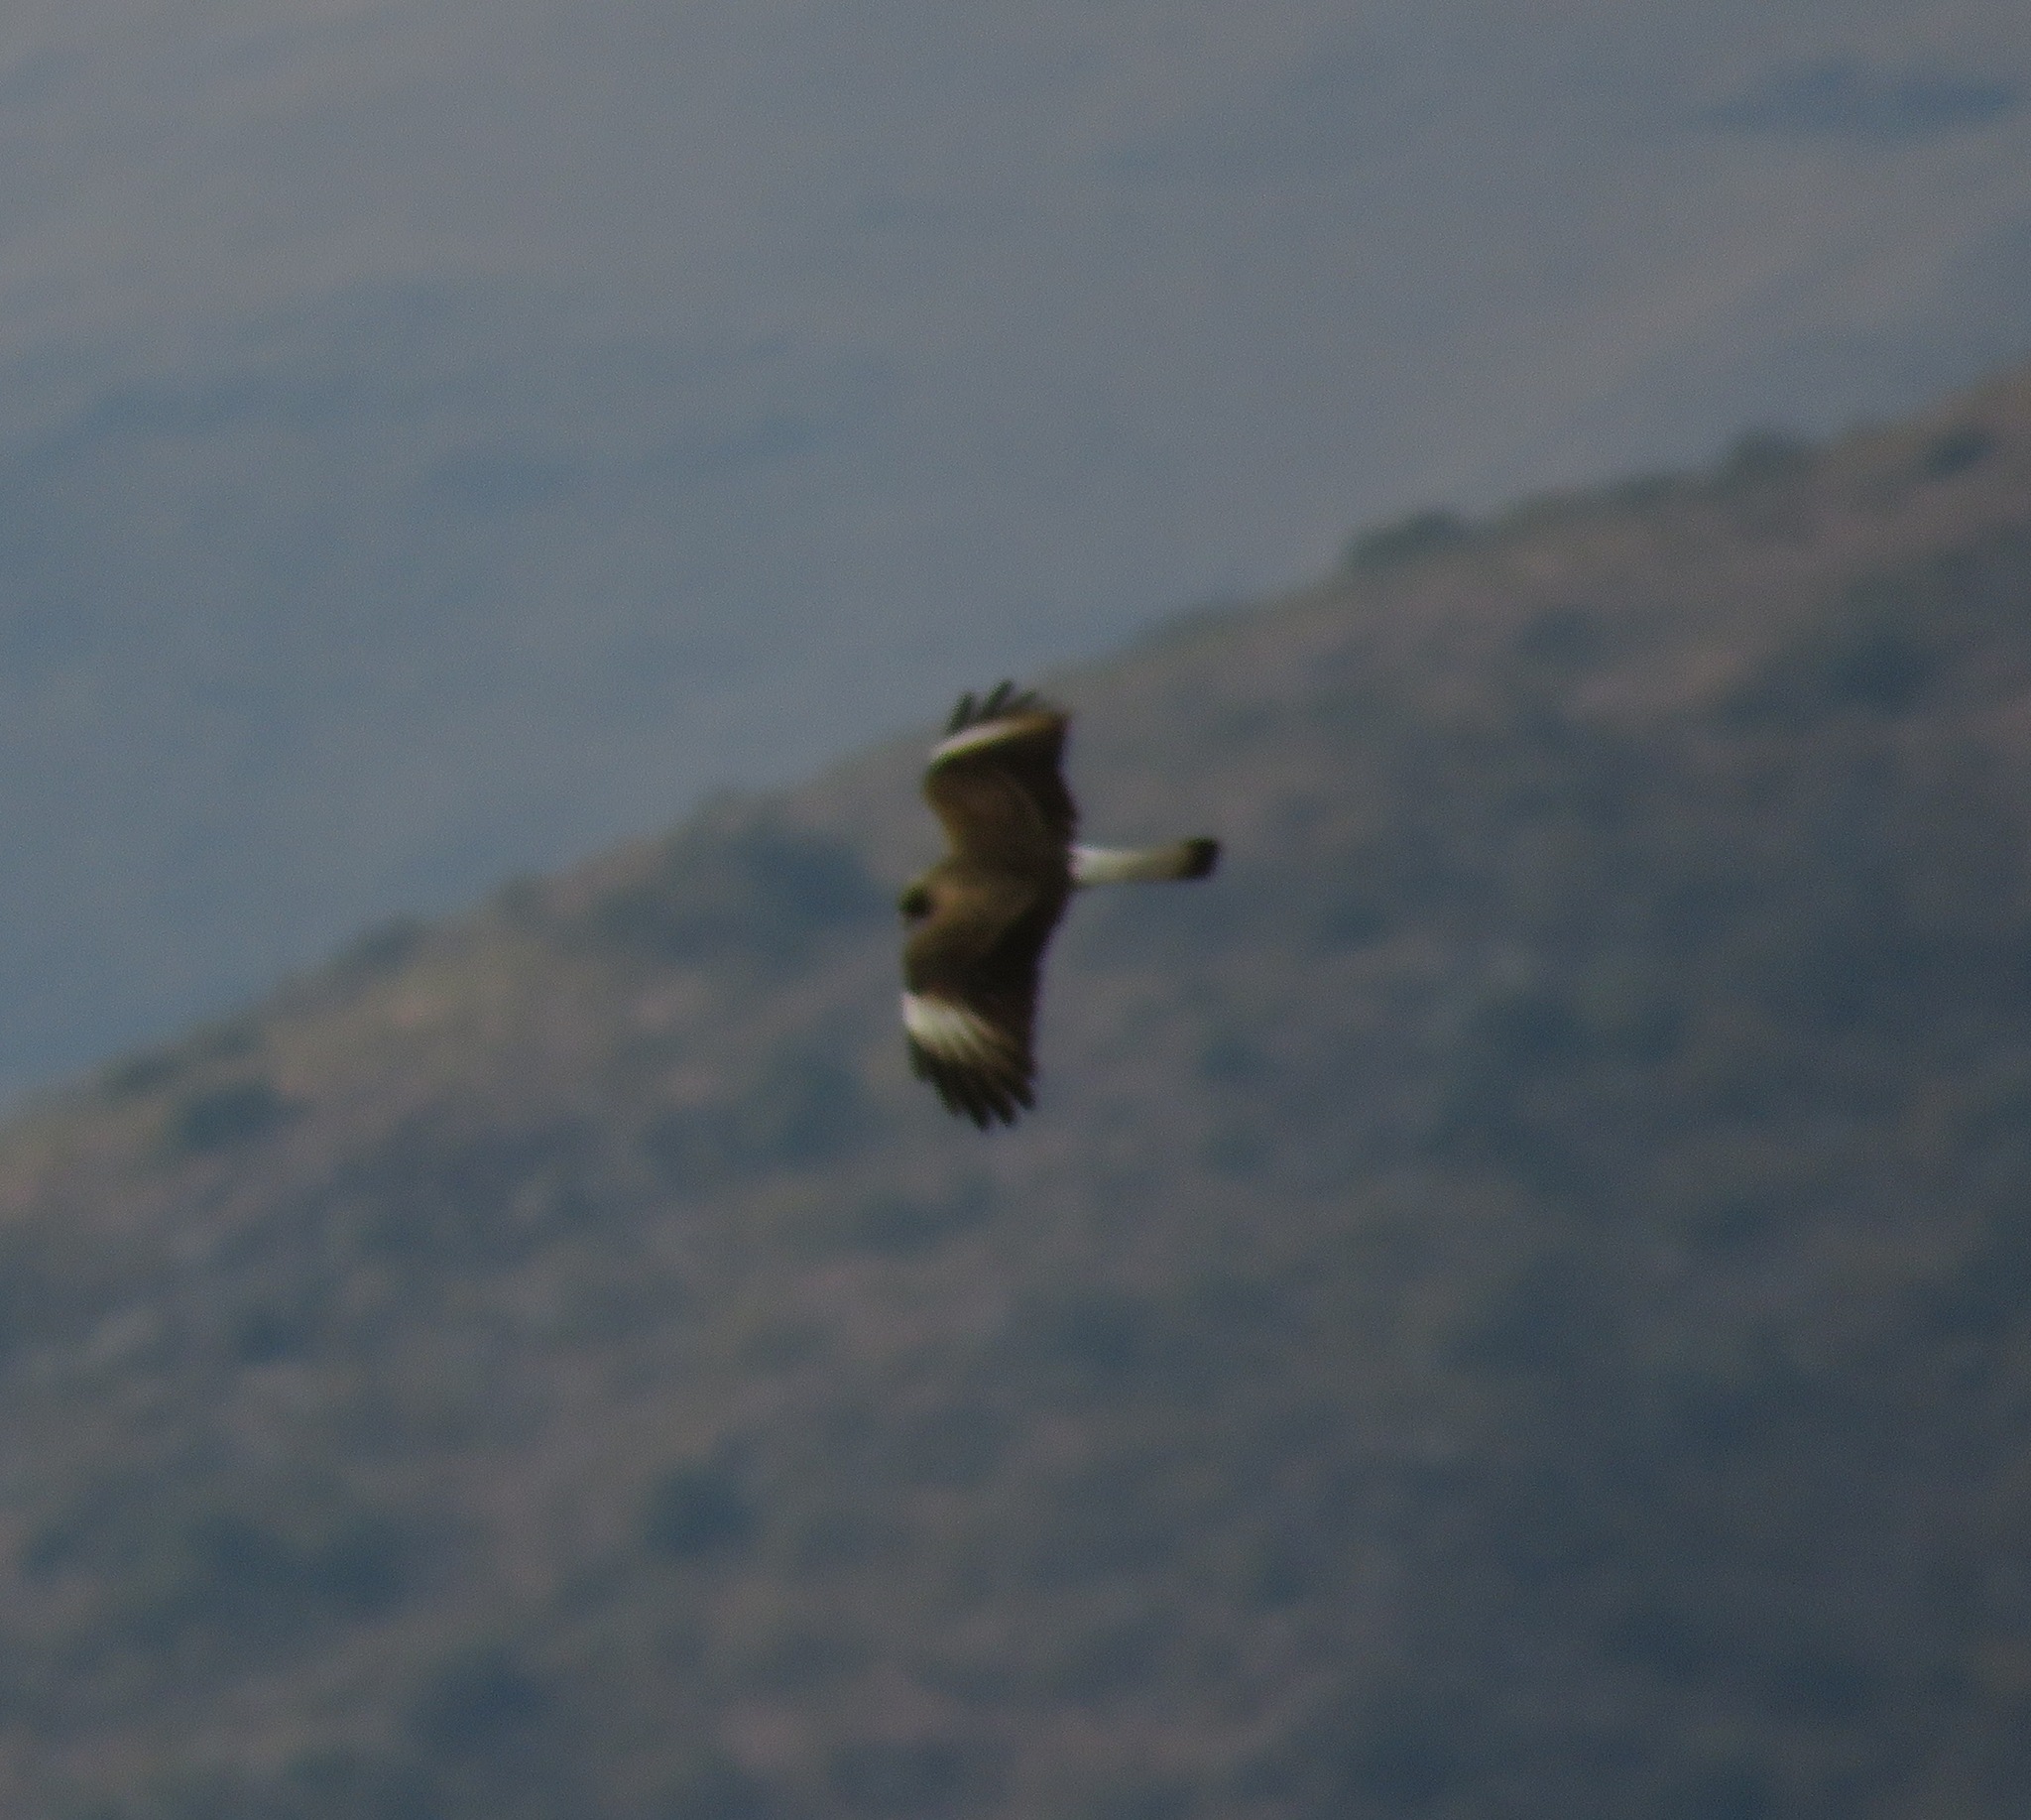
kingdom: Animalia
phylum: Chordata
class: Aves
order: Falconiformes
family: Falconidae
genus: Daptrius
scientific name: Daptrius
